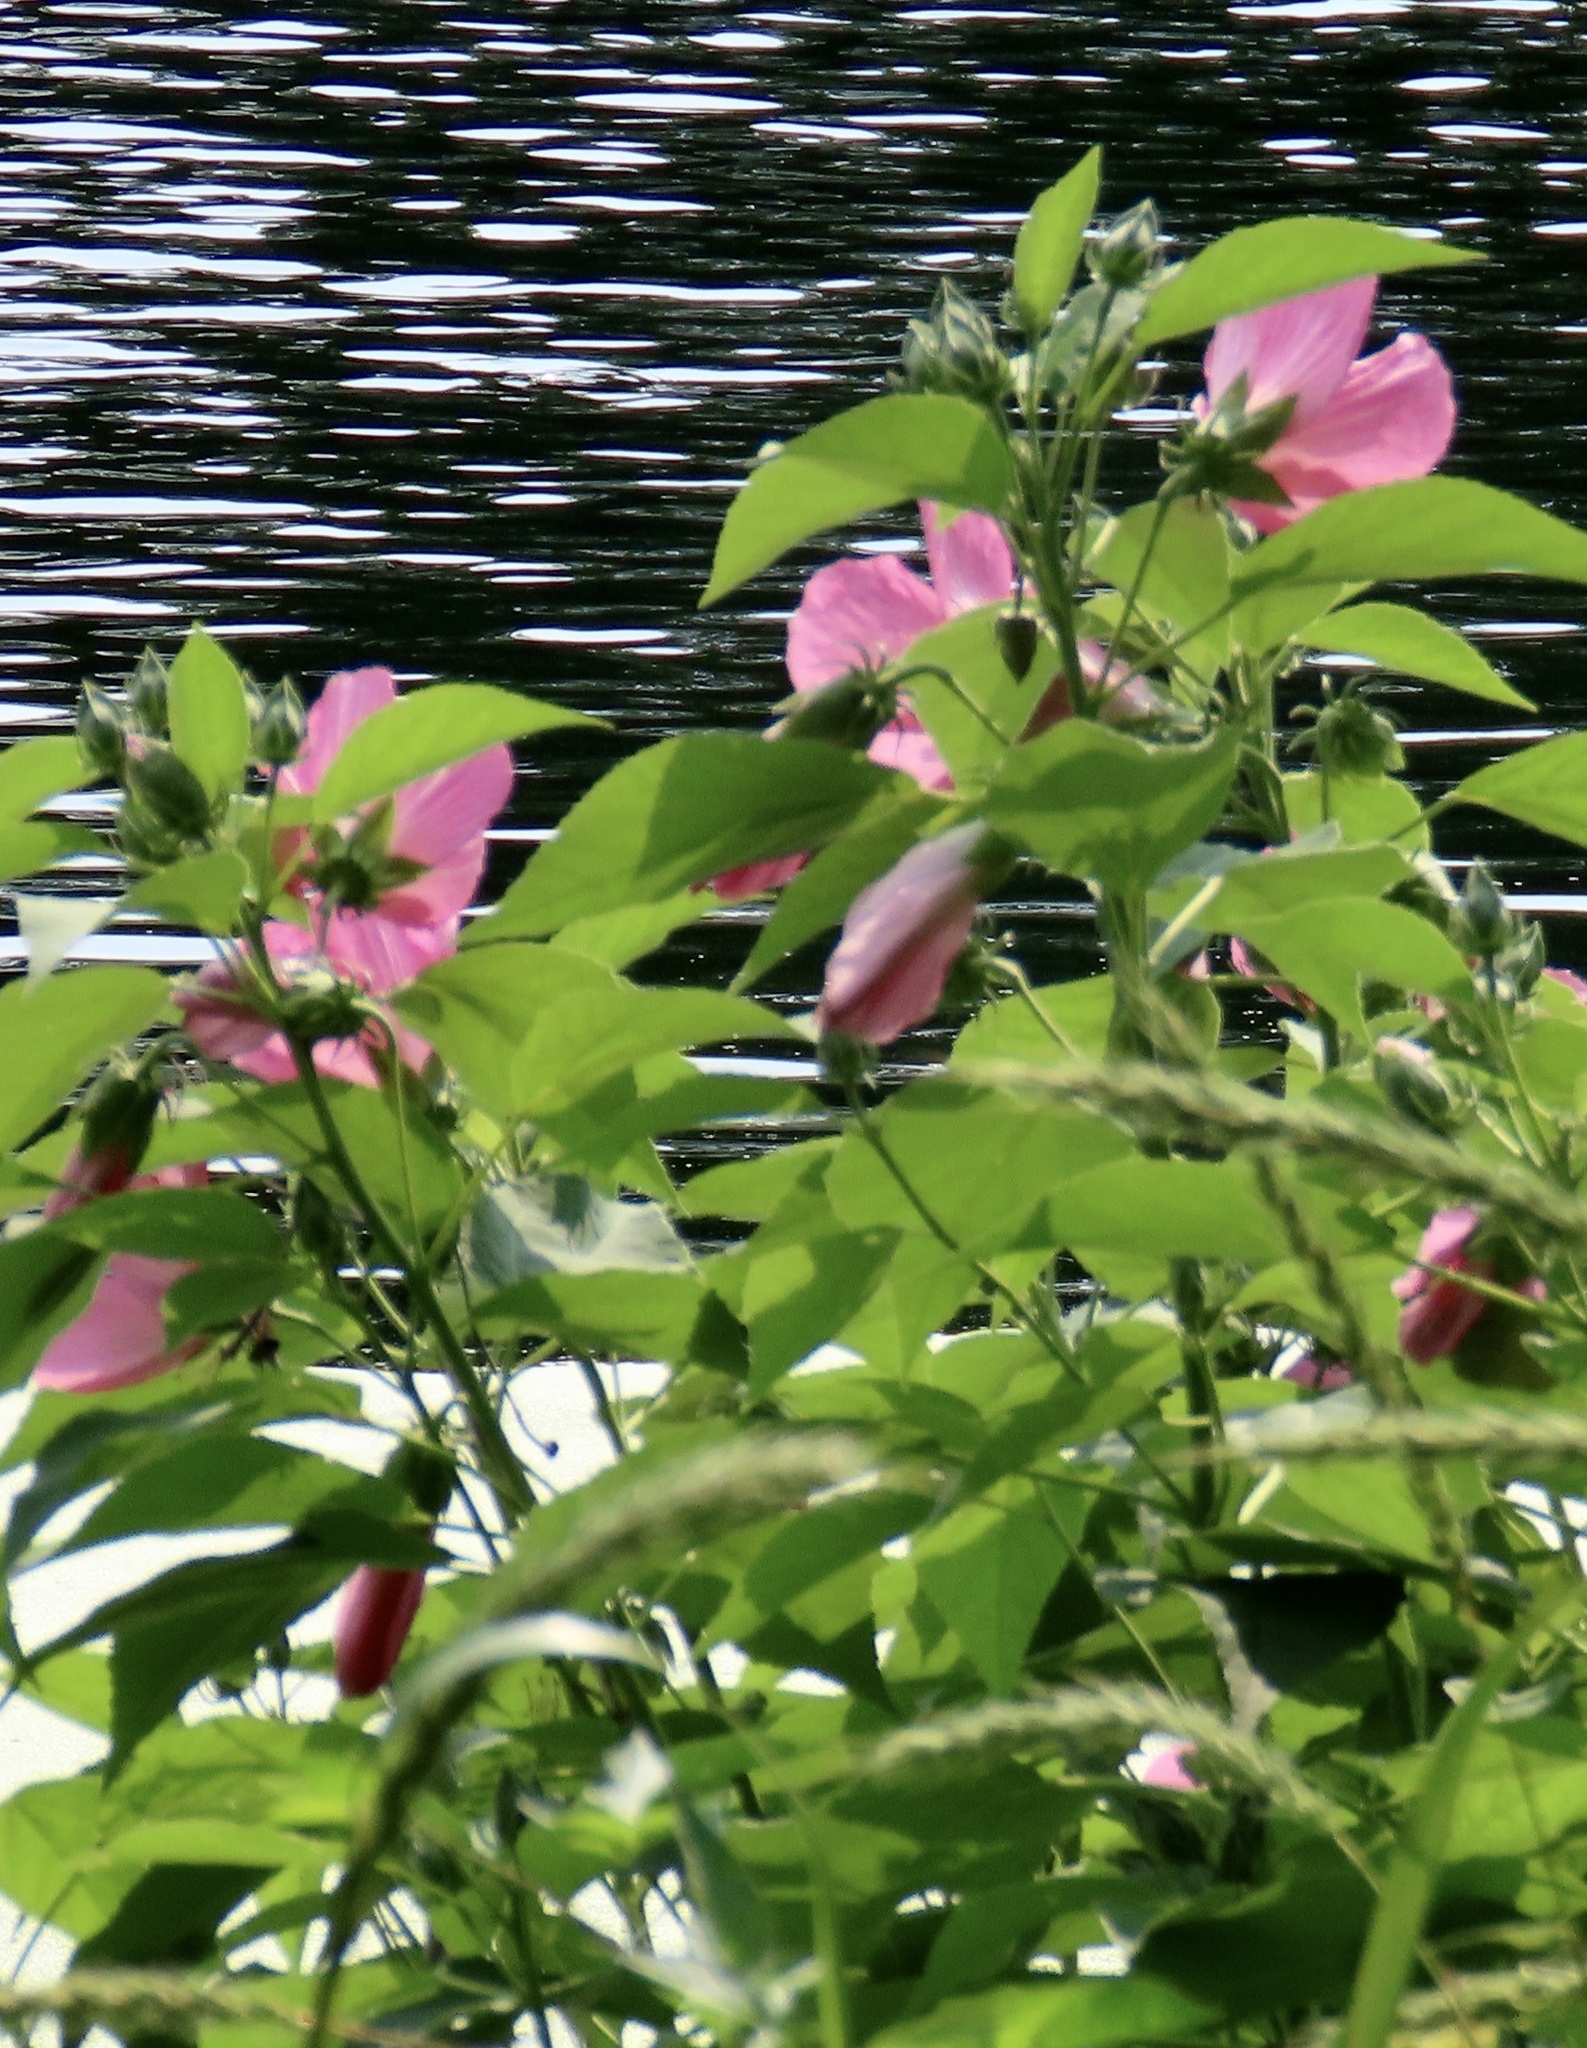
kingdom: Plantae
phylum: Tracheophyta
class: Magnoliopsida
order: Malvales
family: Malvaceae
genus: Hibiscus
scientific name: Hibiscus moscheutos
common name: Common rose-mallow
